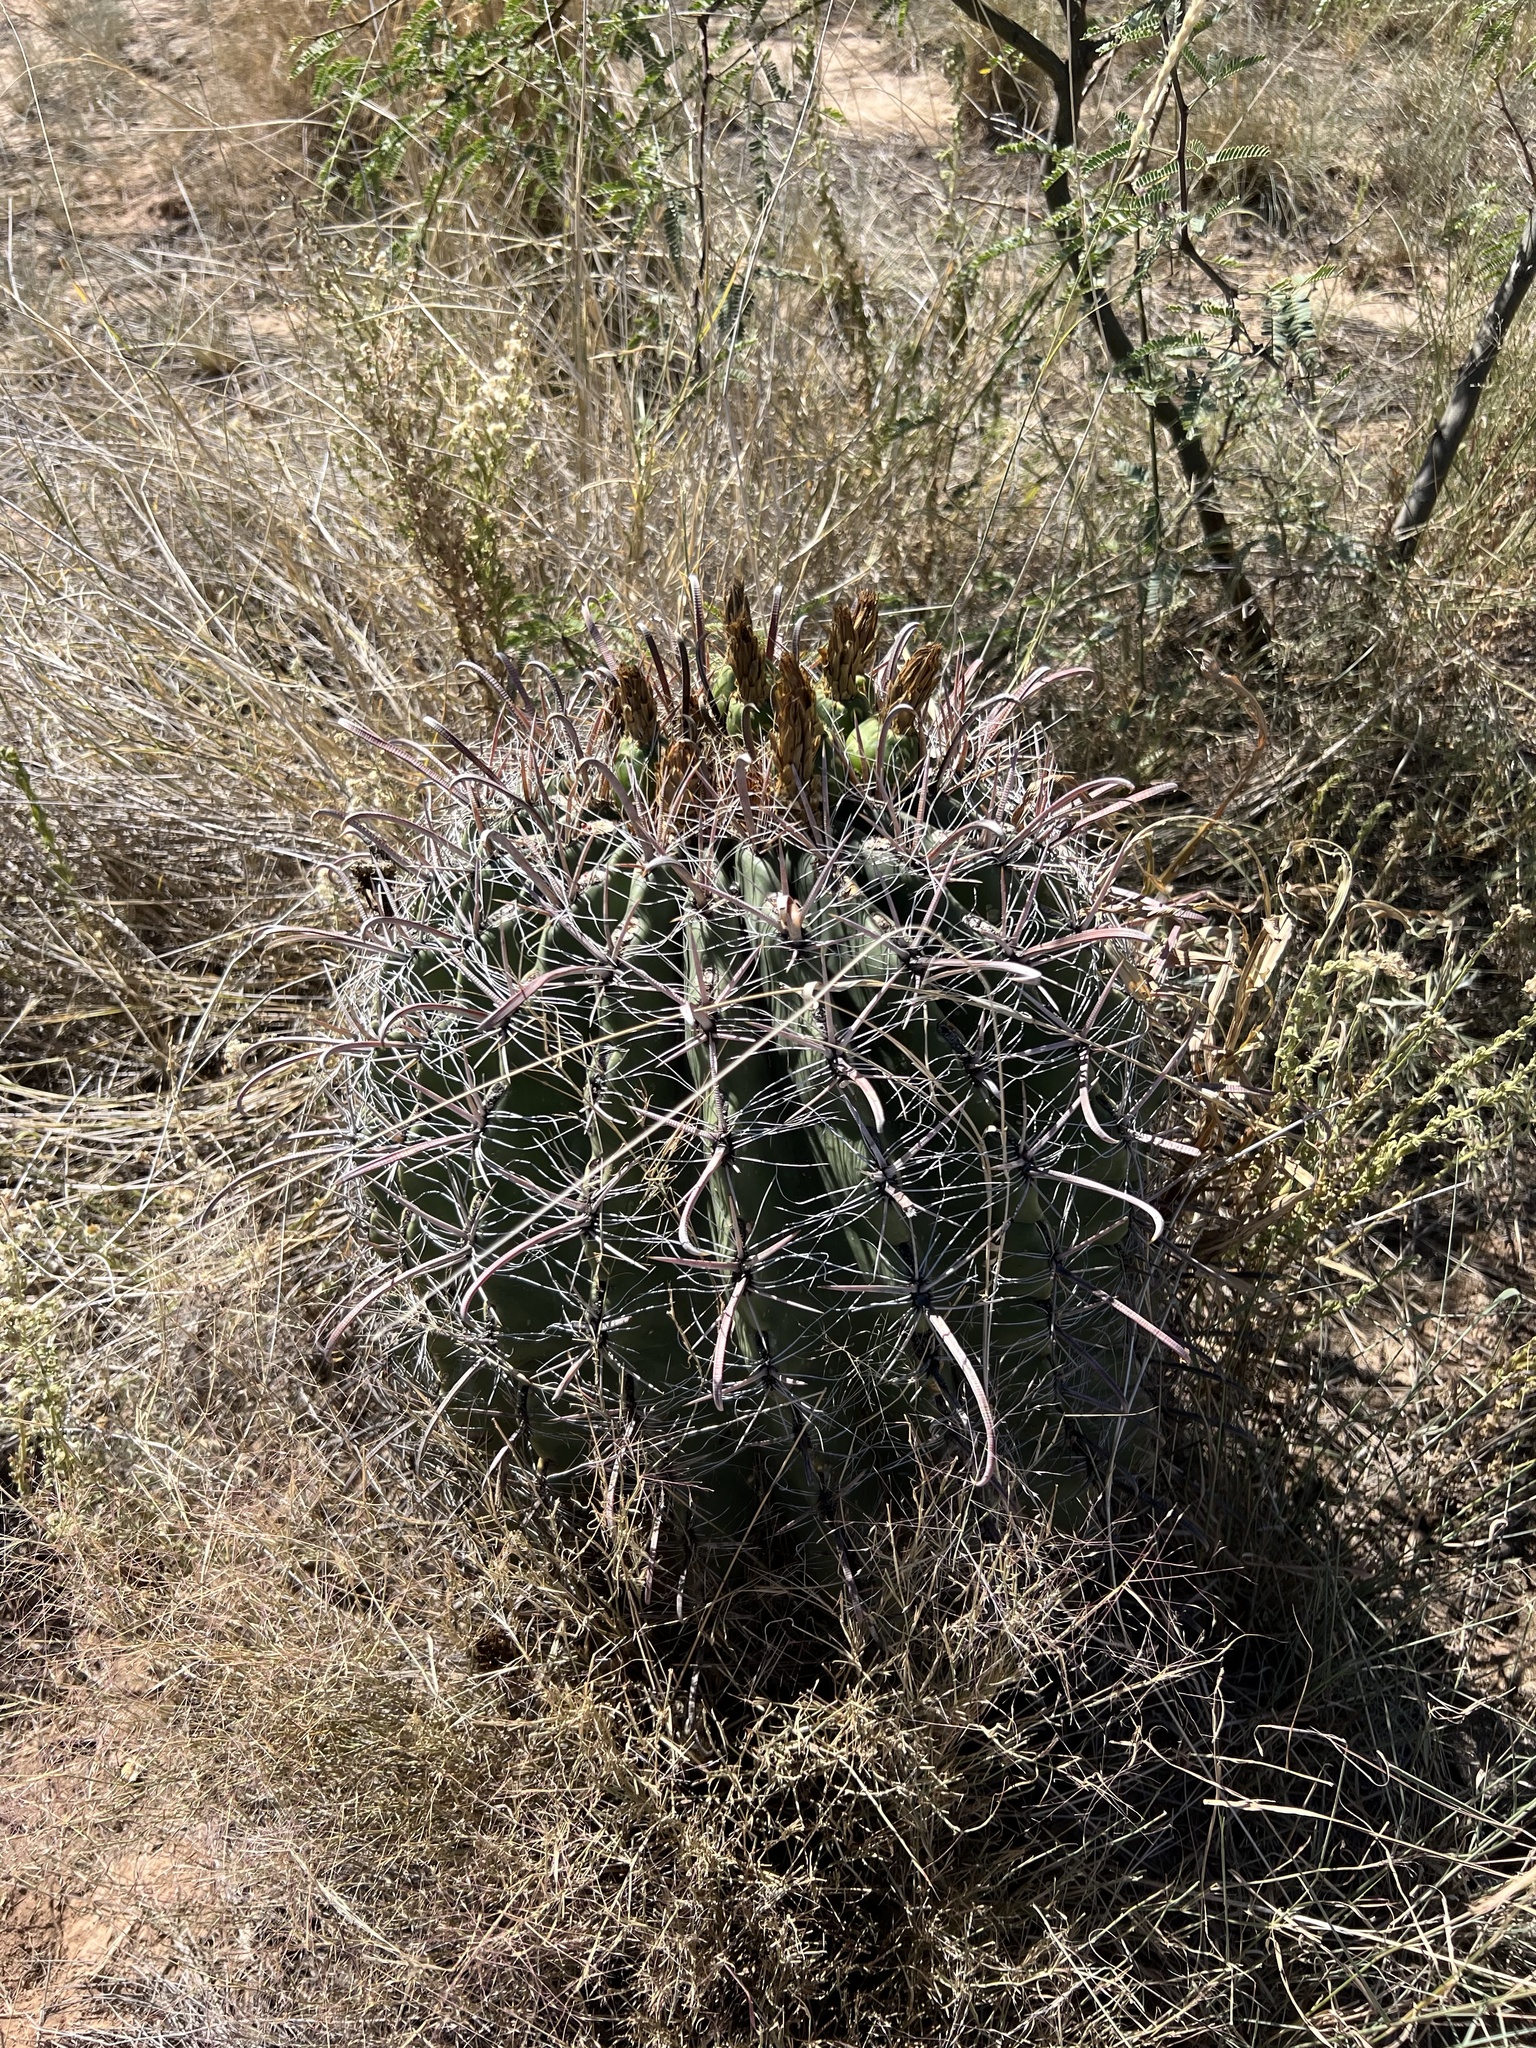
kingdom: Plantae
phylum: Tracheophyta
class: Magnoliopsida
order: Caryophyllales
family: Cactaceae
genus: Ferocactus
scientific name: Ferocactus wislizeni
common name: Candy barrel cactus
